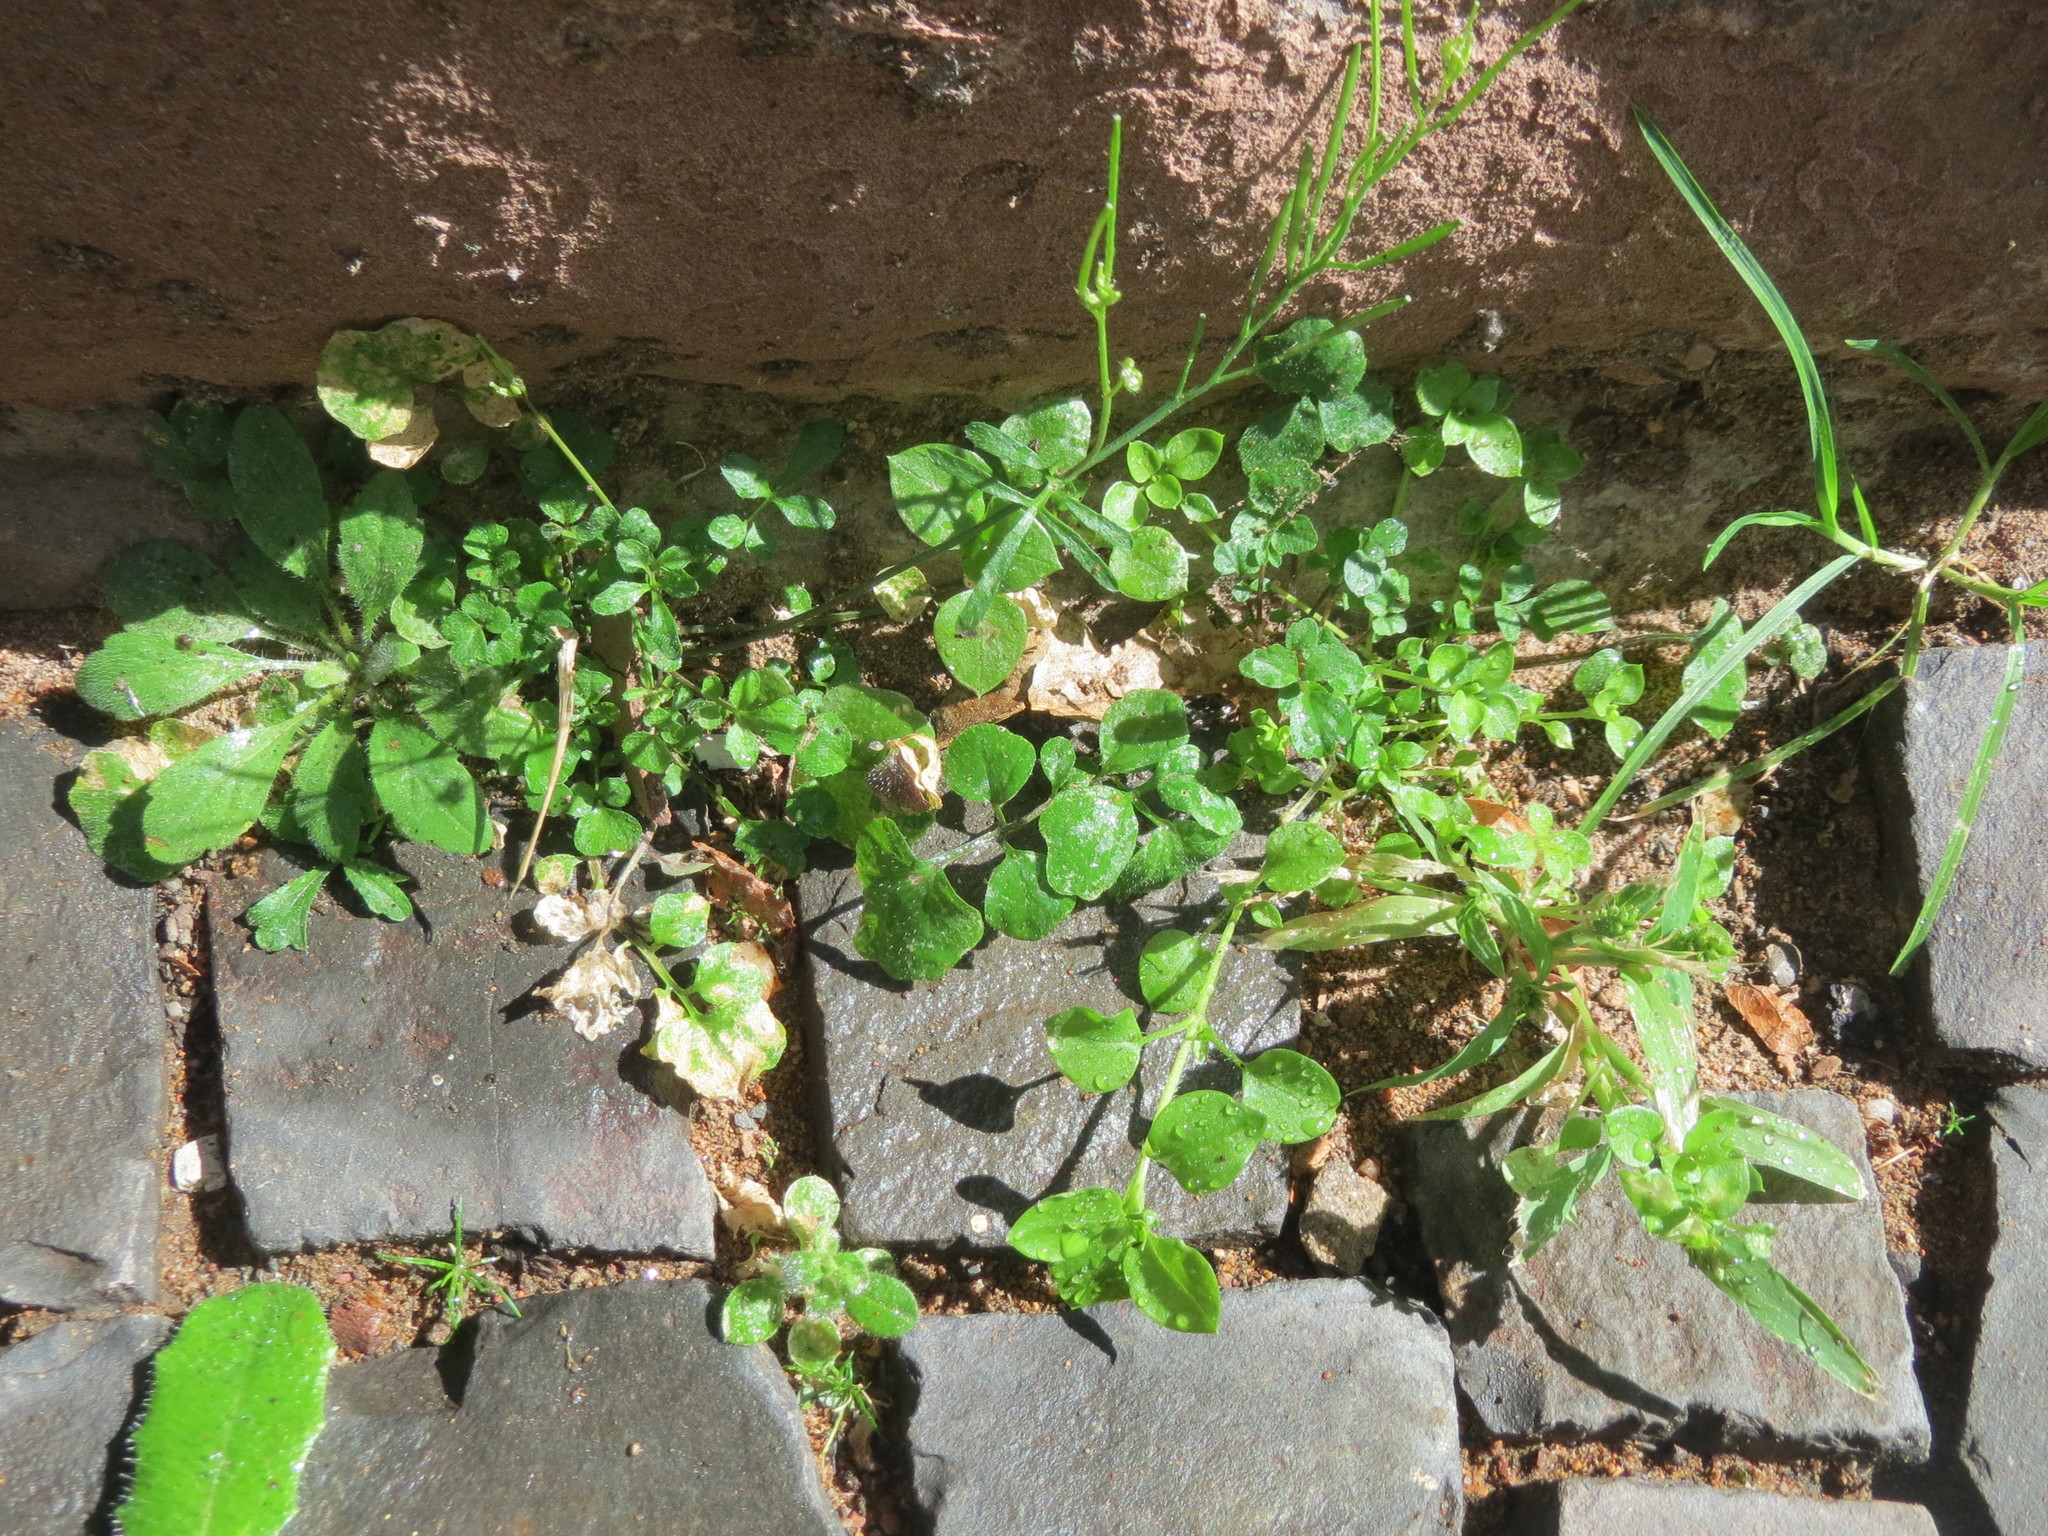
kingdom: Plantae
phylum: Tracheophyta
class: Magnoliopsida
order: Brassicales
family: Brassicaceae
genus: Cardamine
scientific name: Cardamine hirsuta
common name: Hairy bittercress
